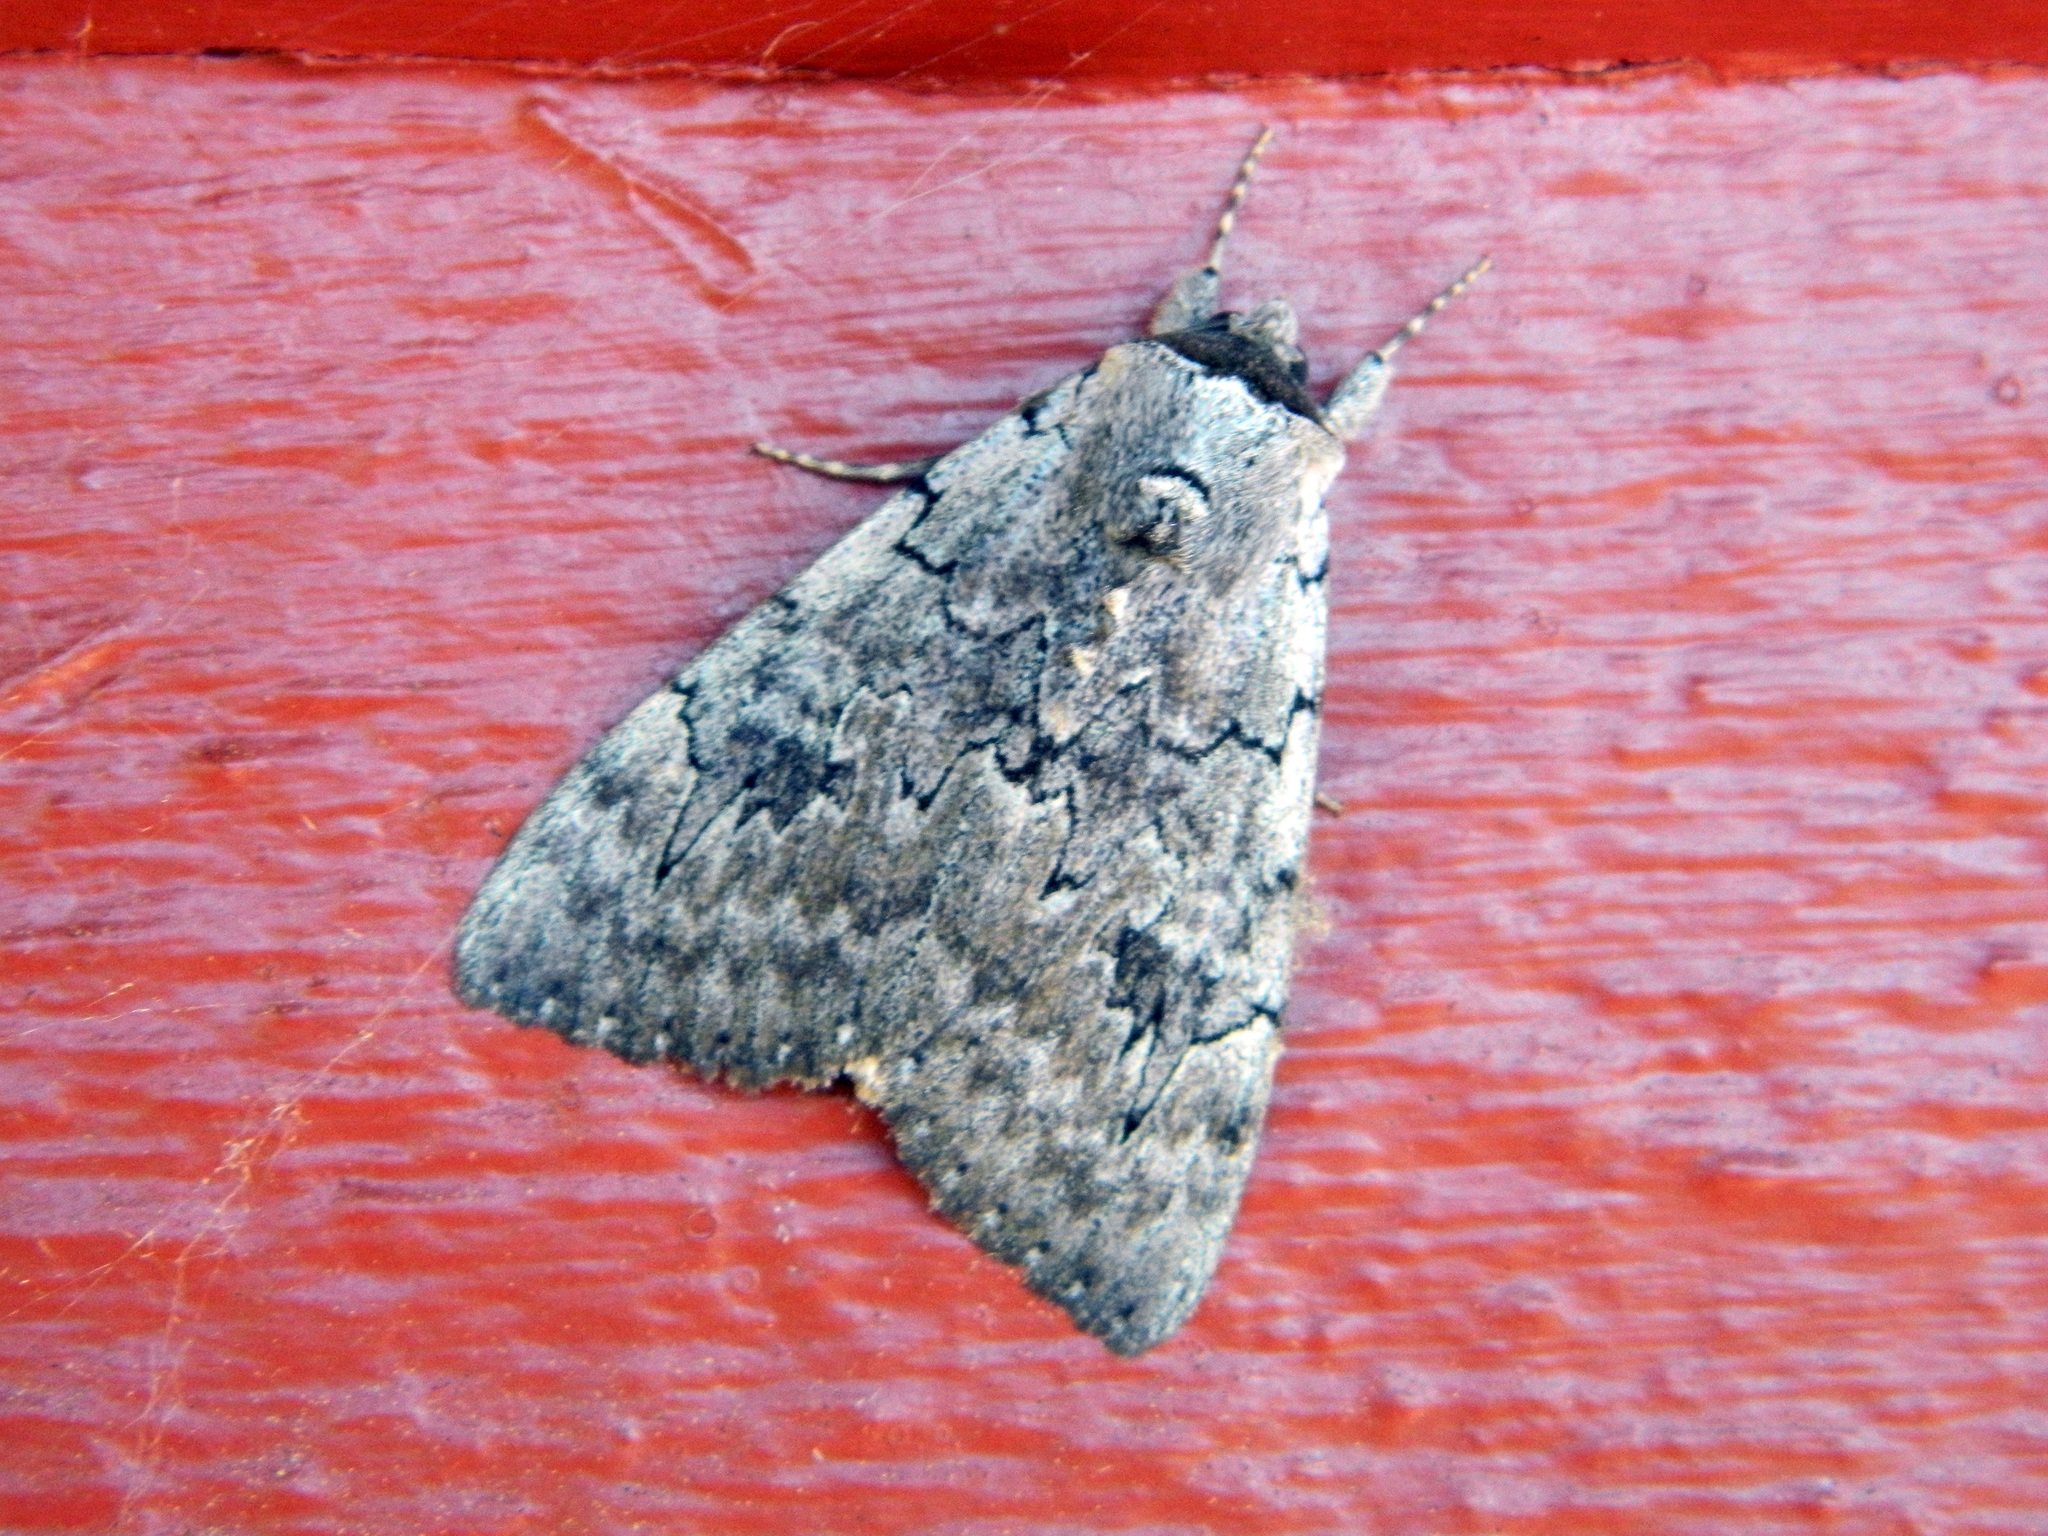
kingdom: Animalia
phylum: Arthropoda
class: Insecta
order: Lepidoptera
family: Erebidae
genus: Catocala
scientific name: Catocala concumbens
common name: Pink underwing
